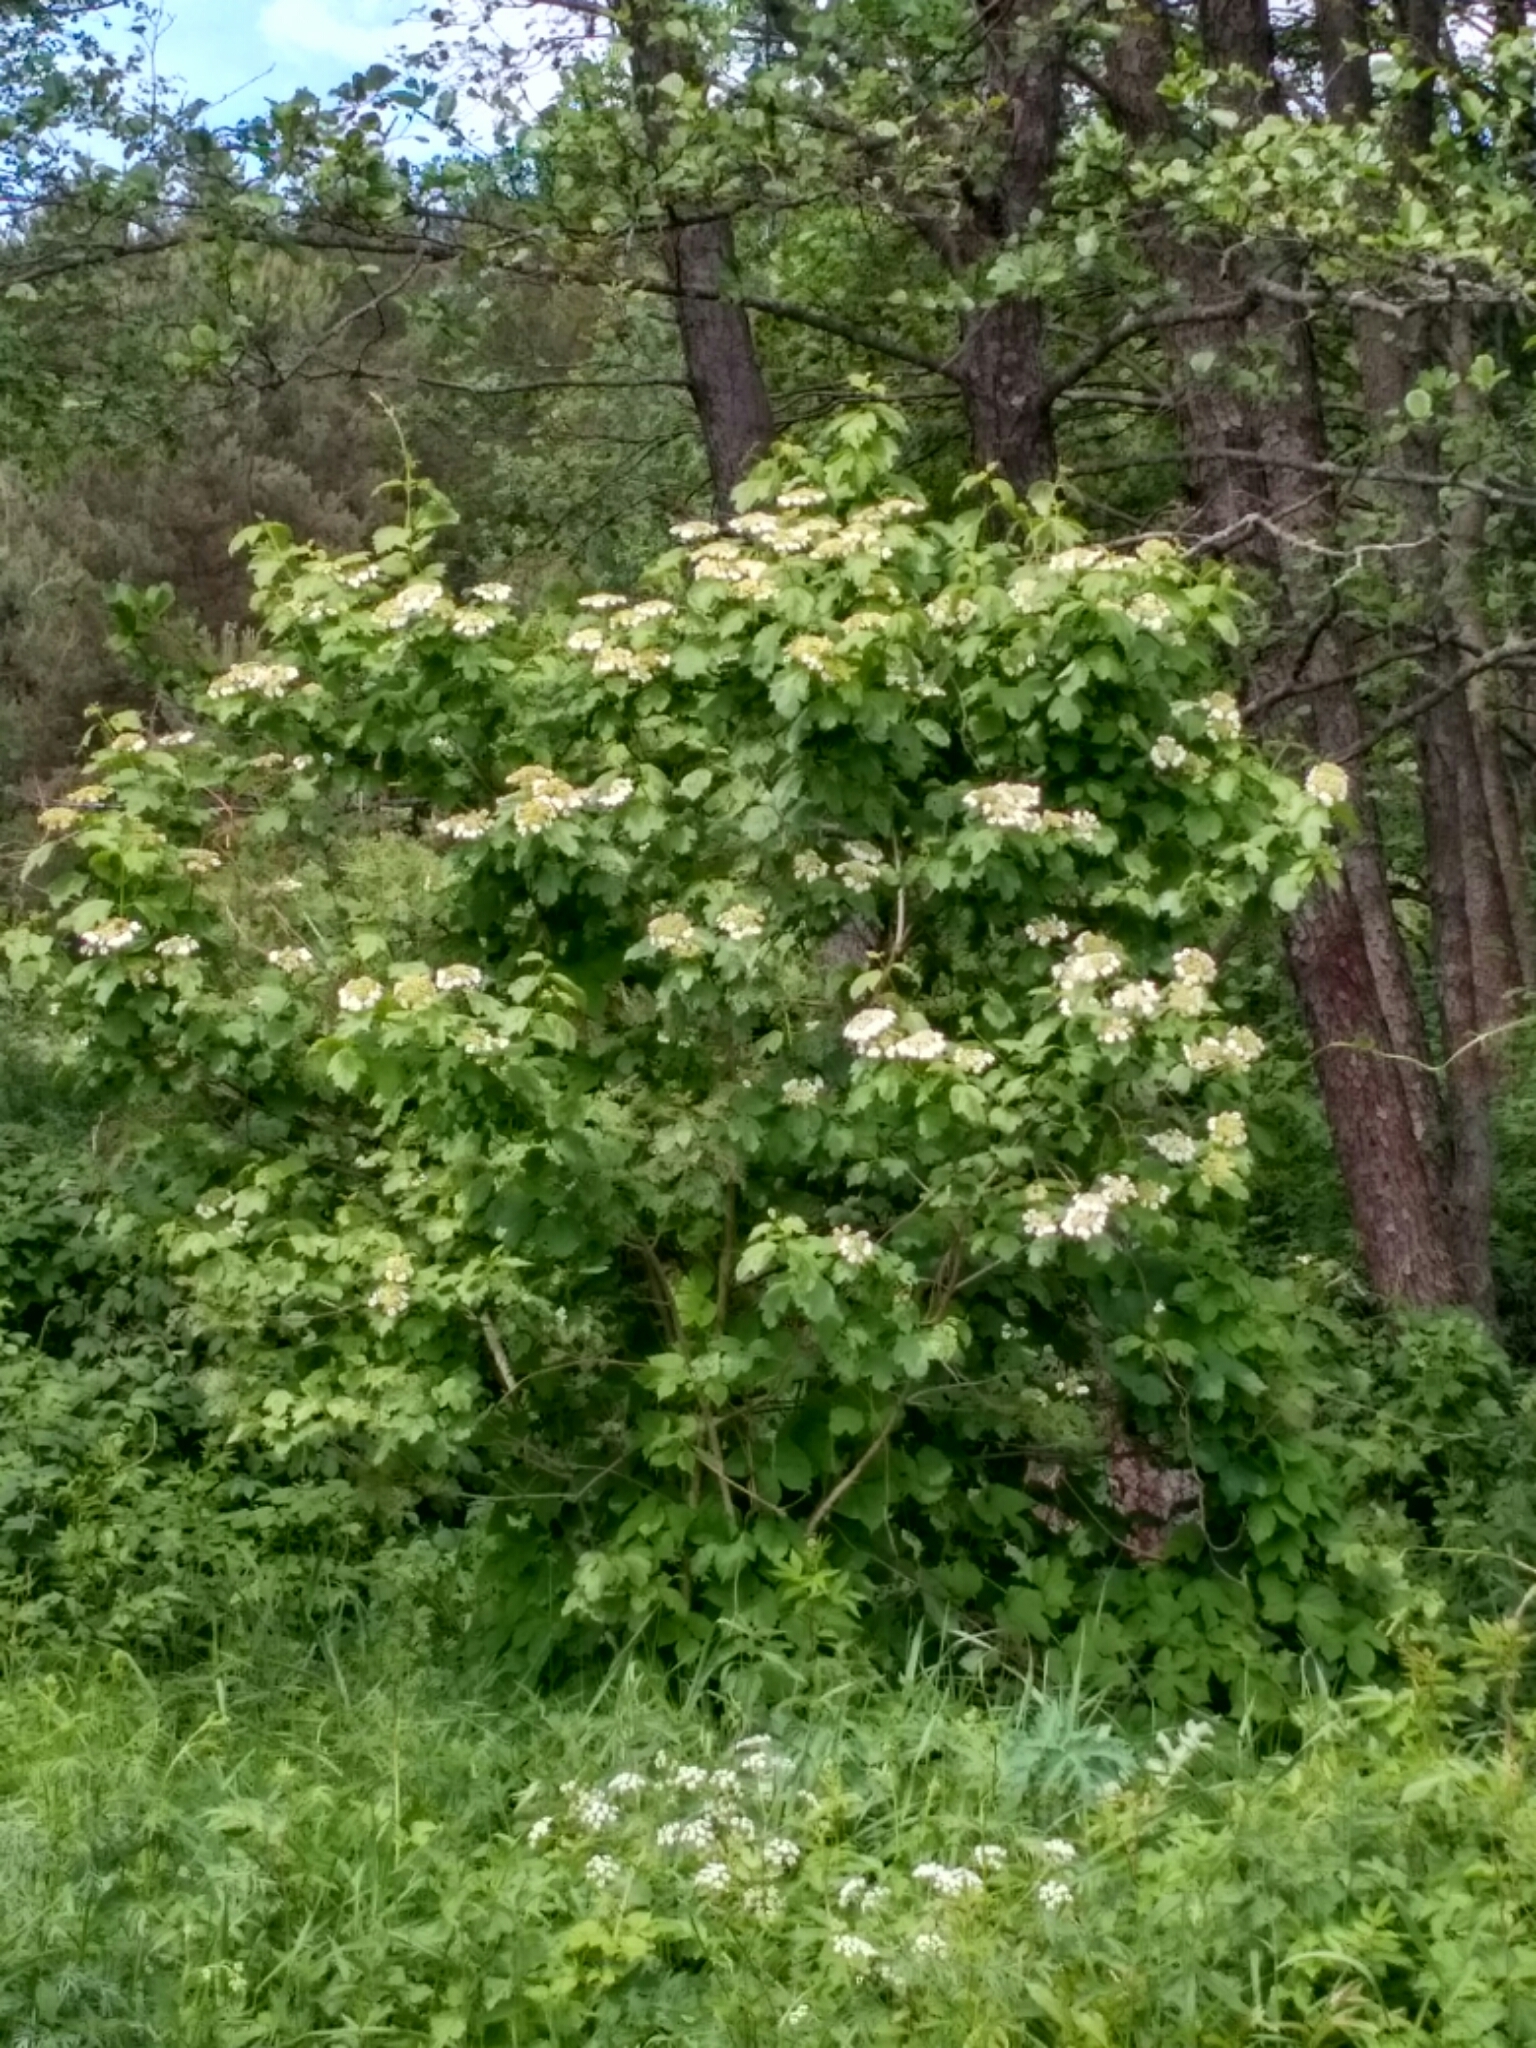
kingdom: Plantae
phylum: Tracheophyta
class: Magnoliopsida
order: Dipsacales
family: Viburnaceae
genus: Viburnum
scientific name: Viburnum opulus
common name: Guelder-rose
